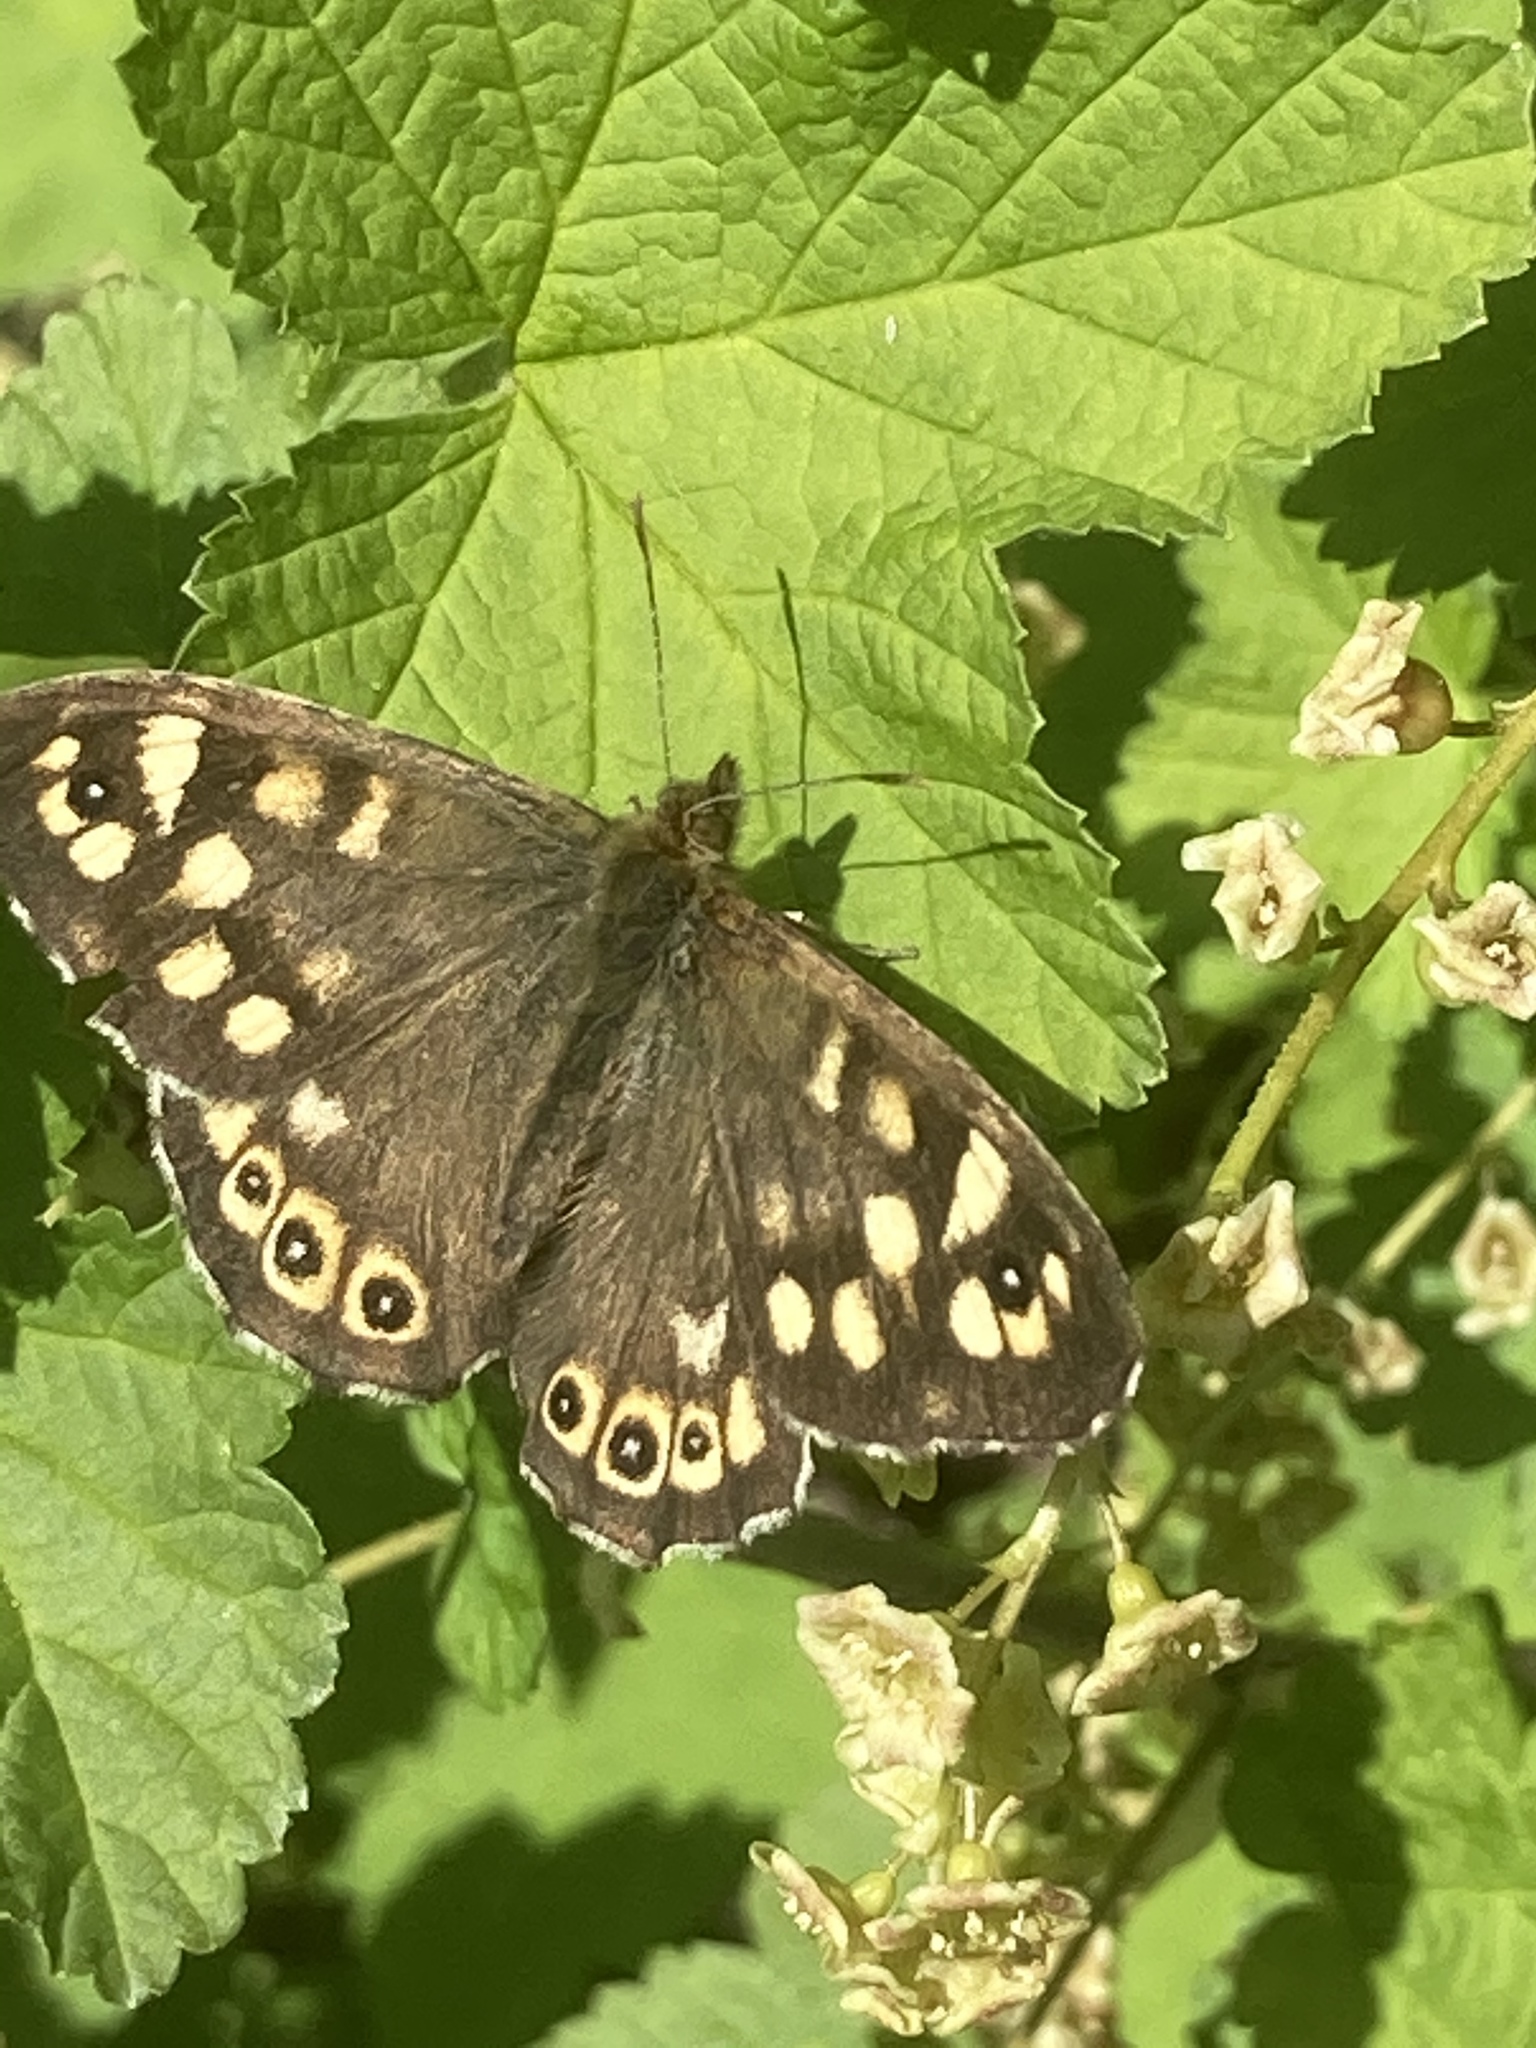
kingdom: Animalia
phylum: Arthropoda
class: Insecta
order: Lepidoptera
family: Nymphalidae
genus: Pararge
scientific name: Pararge aegeria
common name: Speckled wood
